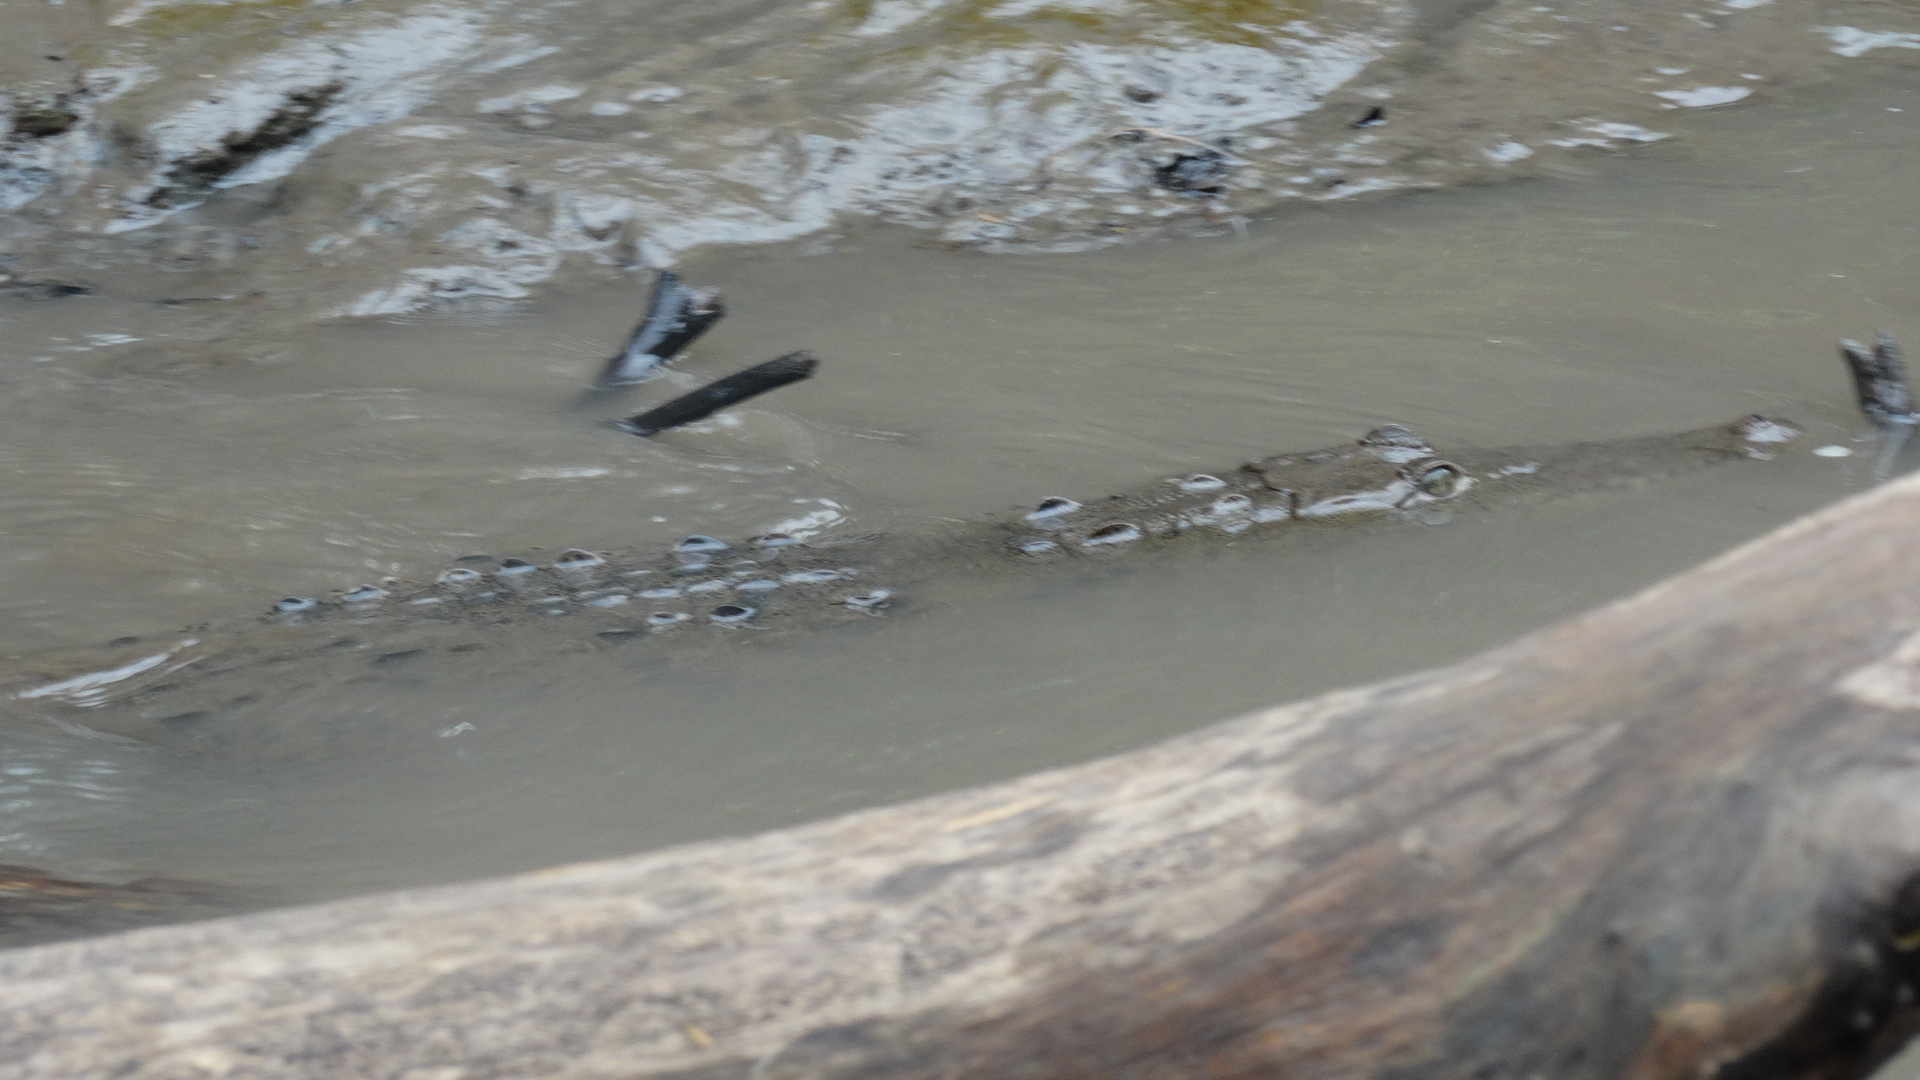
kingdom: Animalia
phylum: Chordata
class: Crocodylia
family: Crocodylidae
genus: Crocodylus
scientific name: Crocodylus acutus
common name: American crocodile
